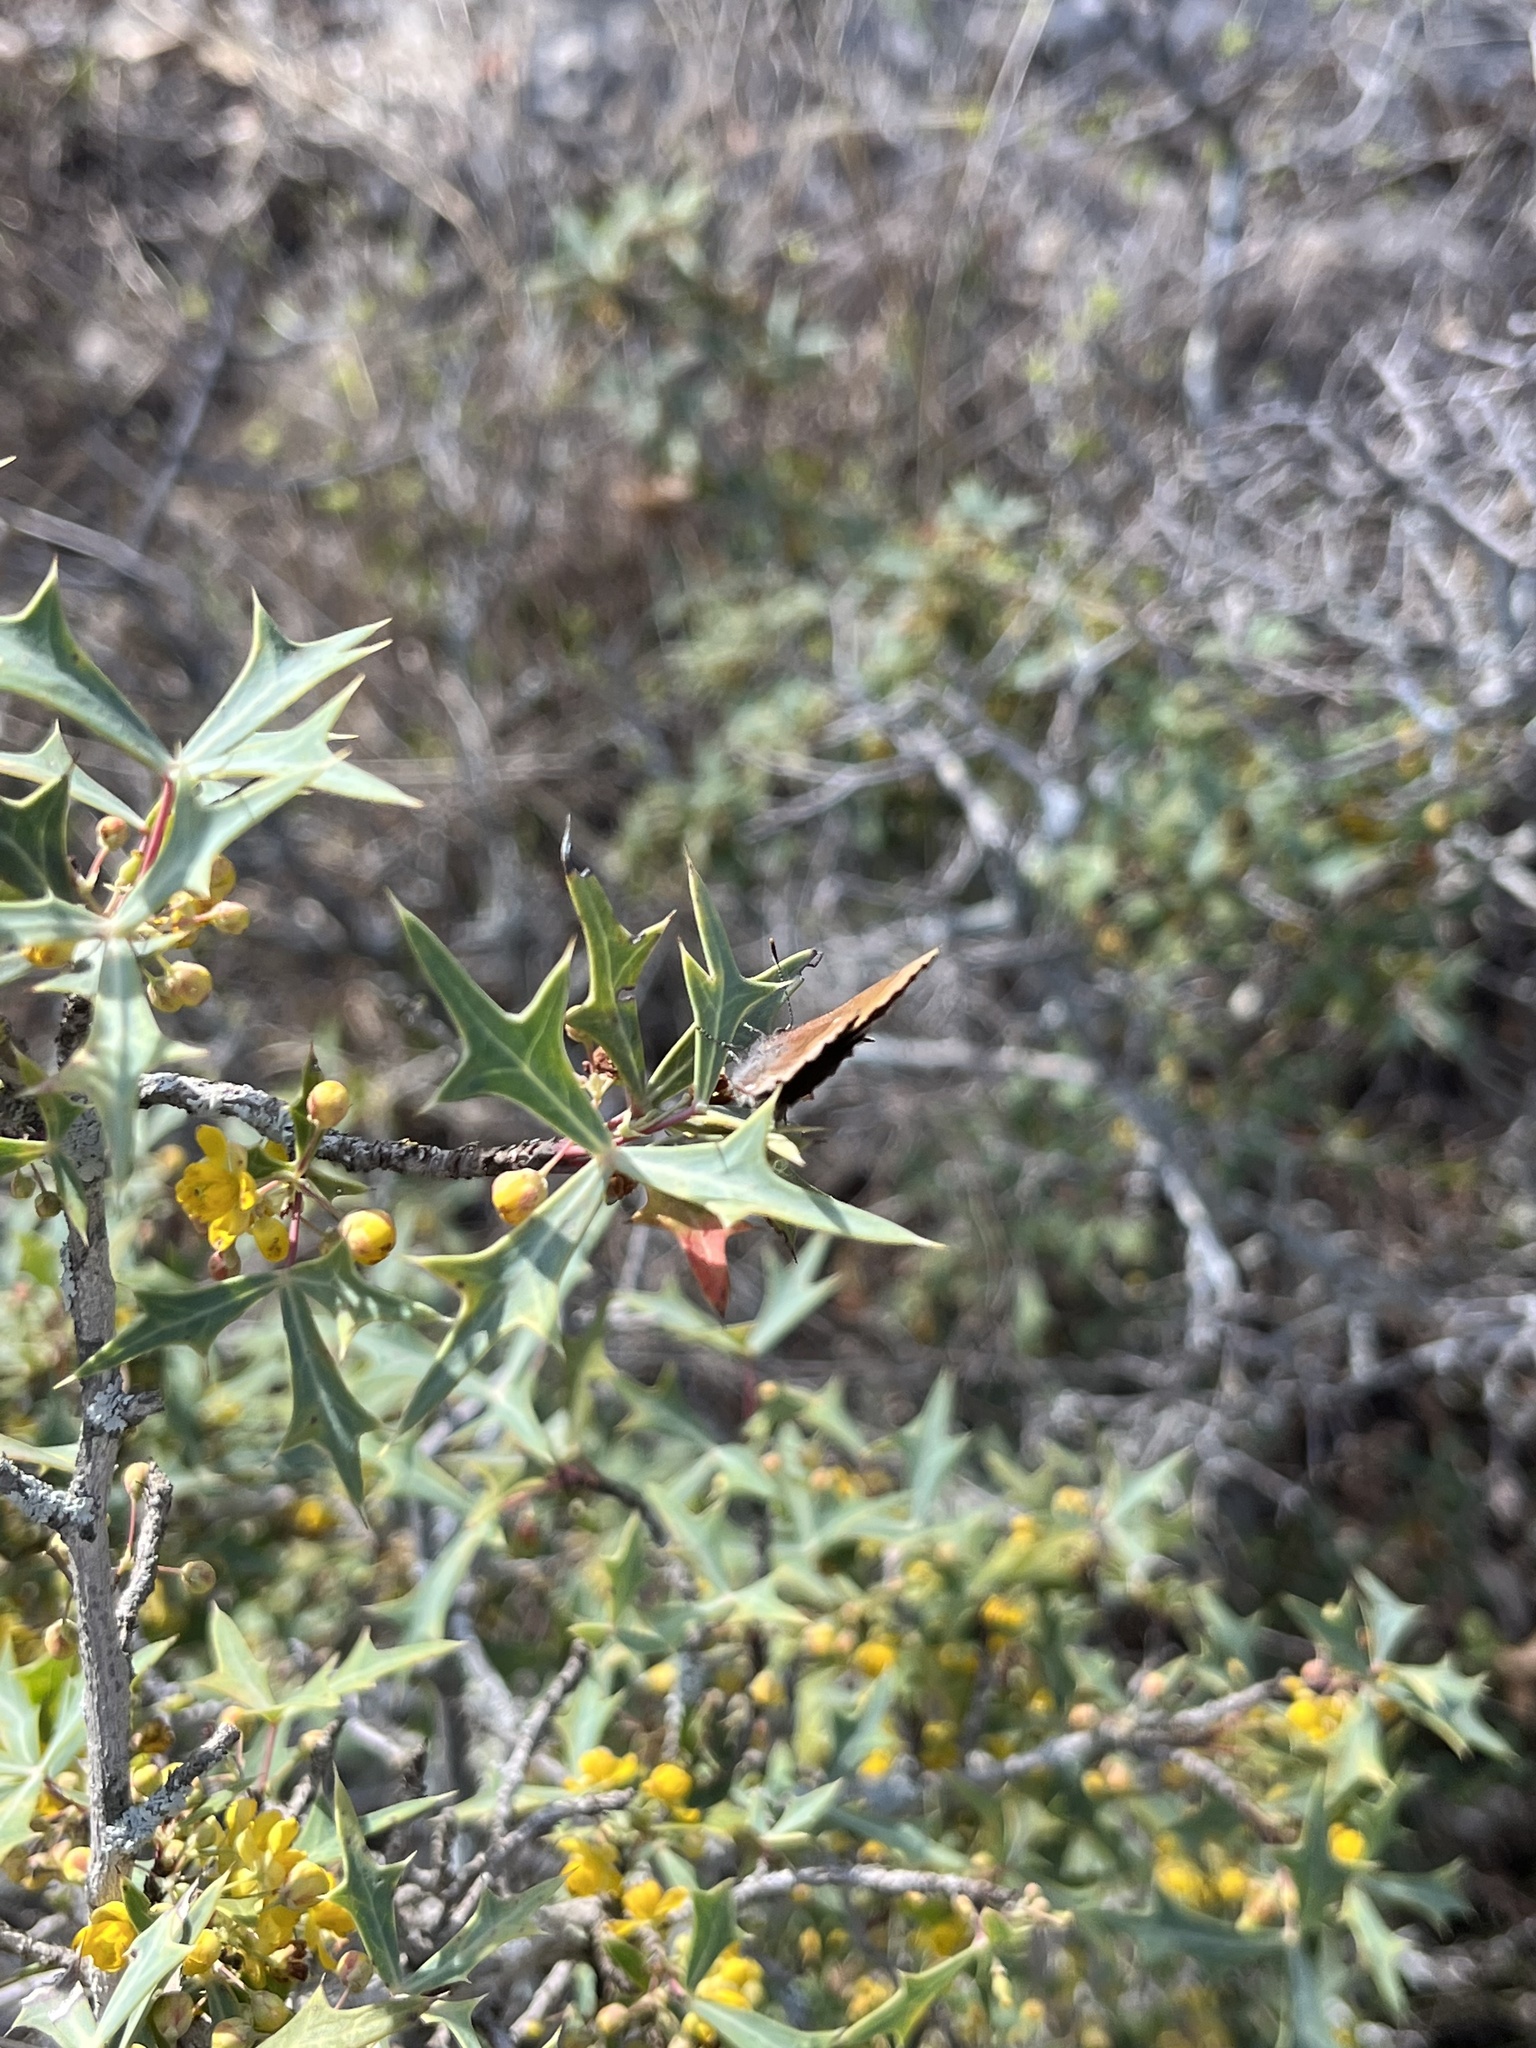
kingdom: Animalia
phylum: Arthropoda
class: Insecta
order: Lepidoptera
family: Lycaenidae
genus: Incisalia
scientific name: Incisalia henrici
